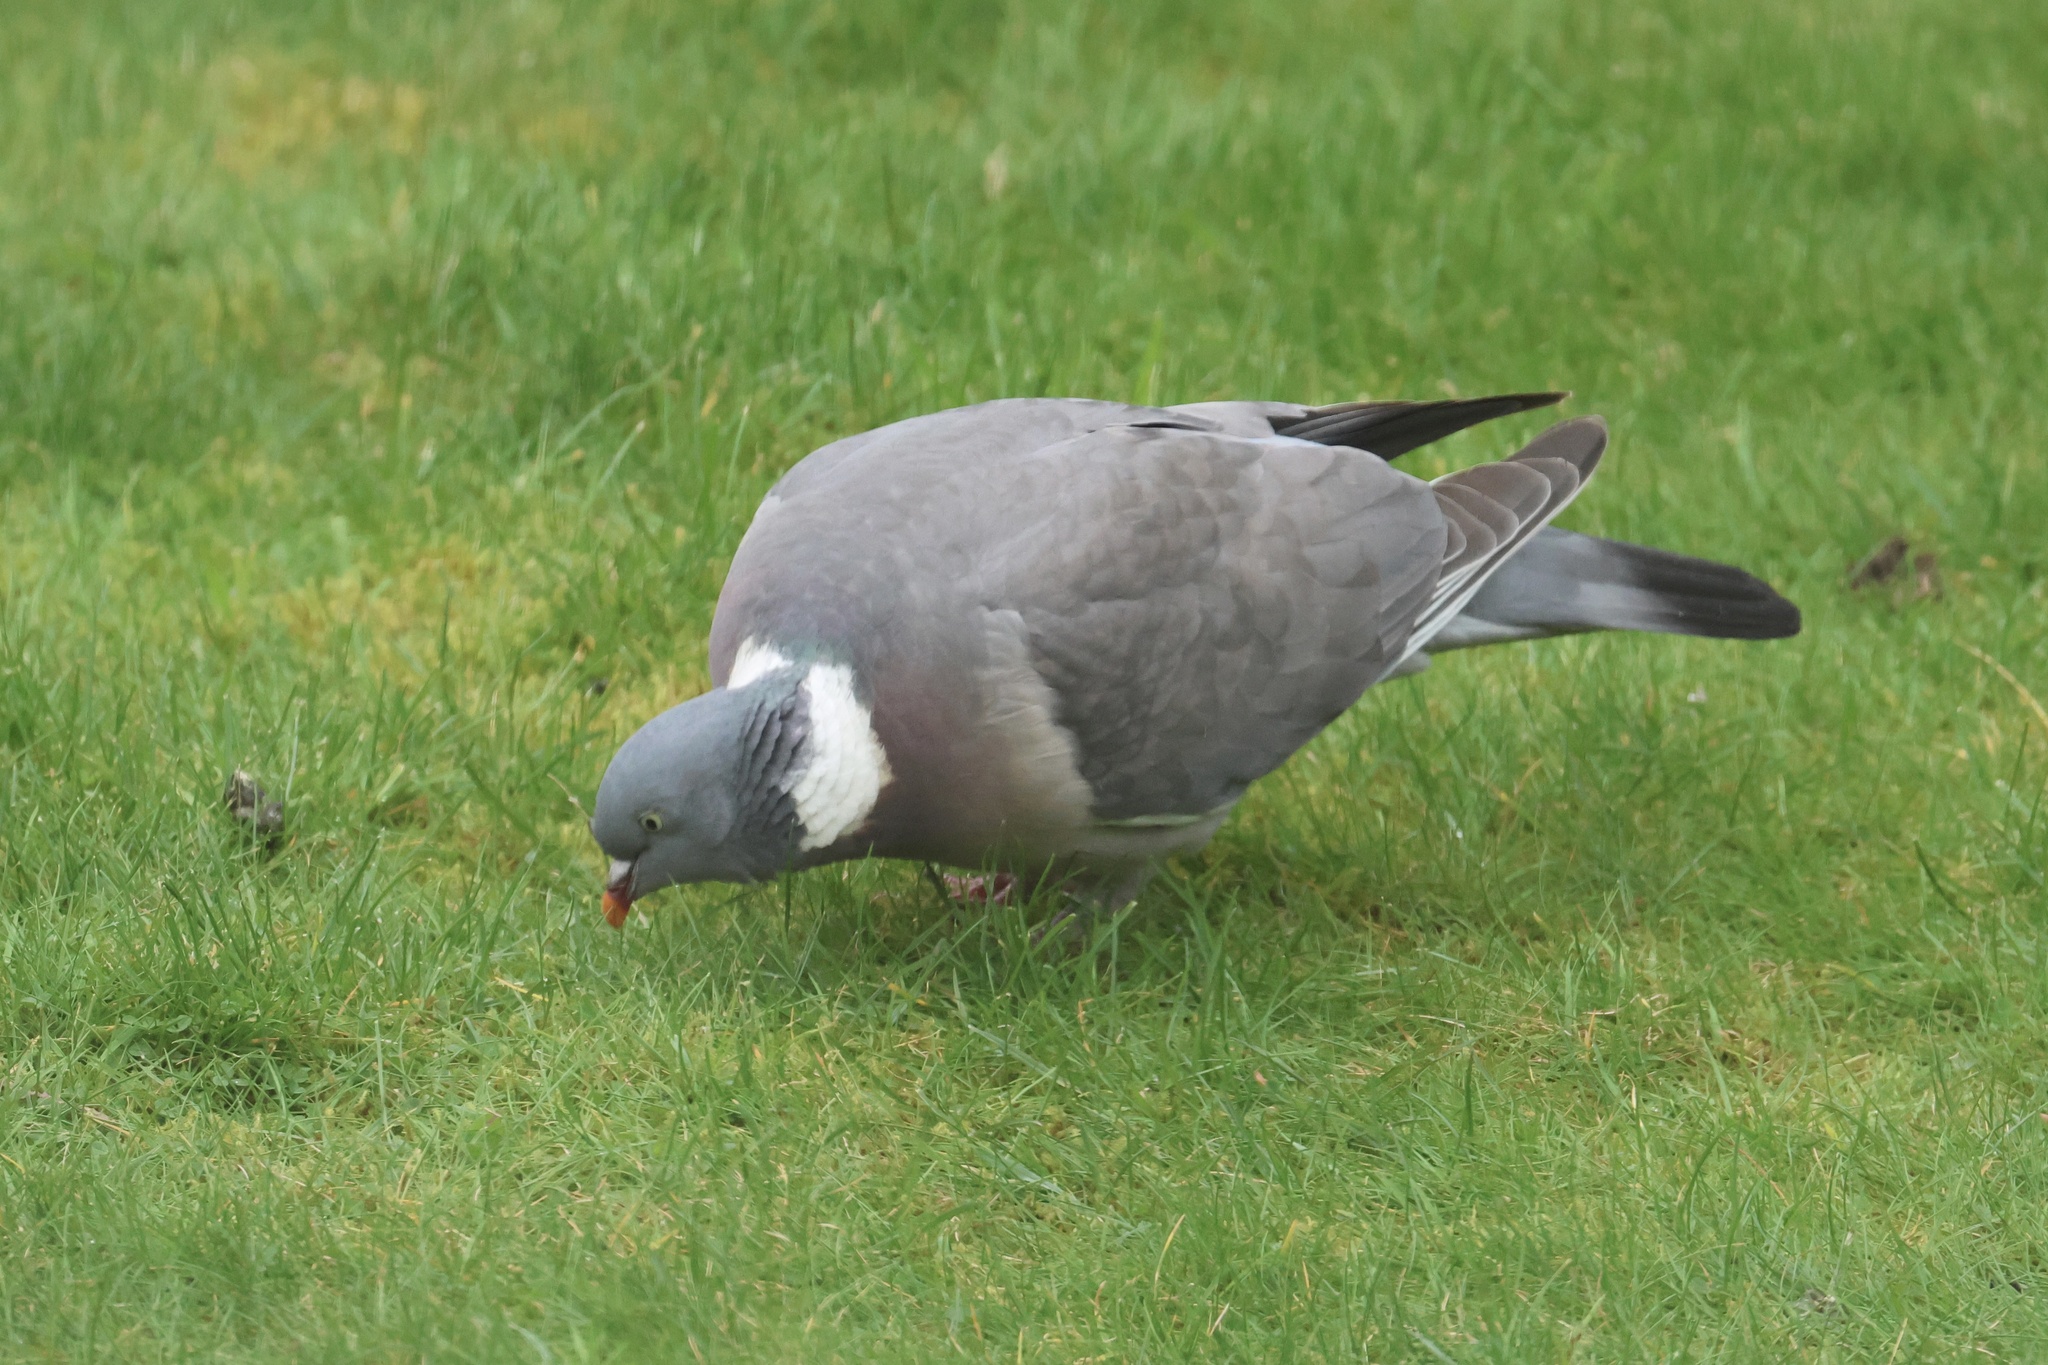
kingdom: Animalia
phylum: Chordata
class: Aves
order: Columbiformes
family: Columbidae
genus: Columba
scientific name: Columba palumbus
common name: Common wood pigeon
